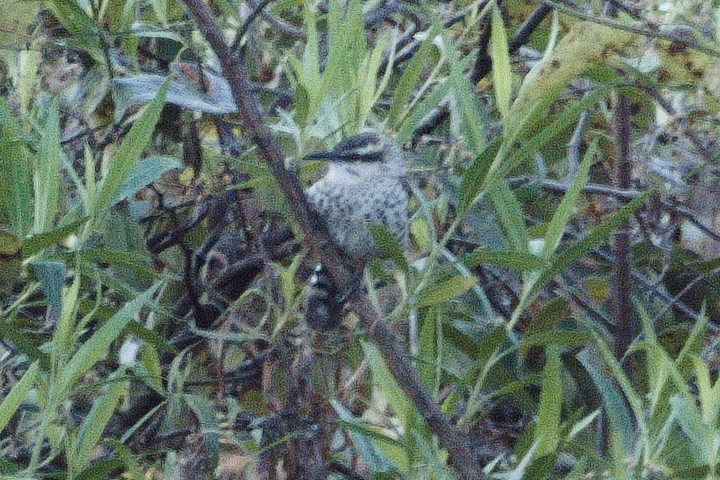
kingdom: Animalia
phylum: Chordata
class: Aves
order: Passeriformes
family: Troglodytidae
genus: Campylorhynchus
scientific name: Campylorhynchus jocosus
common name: Boucard's wren
